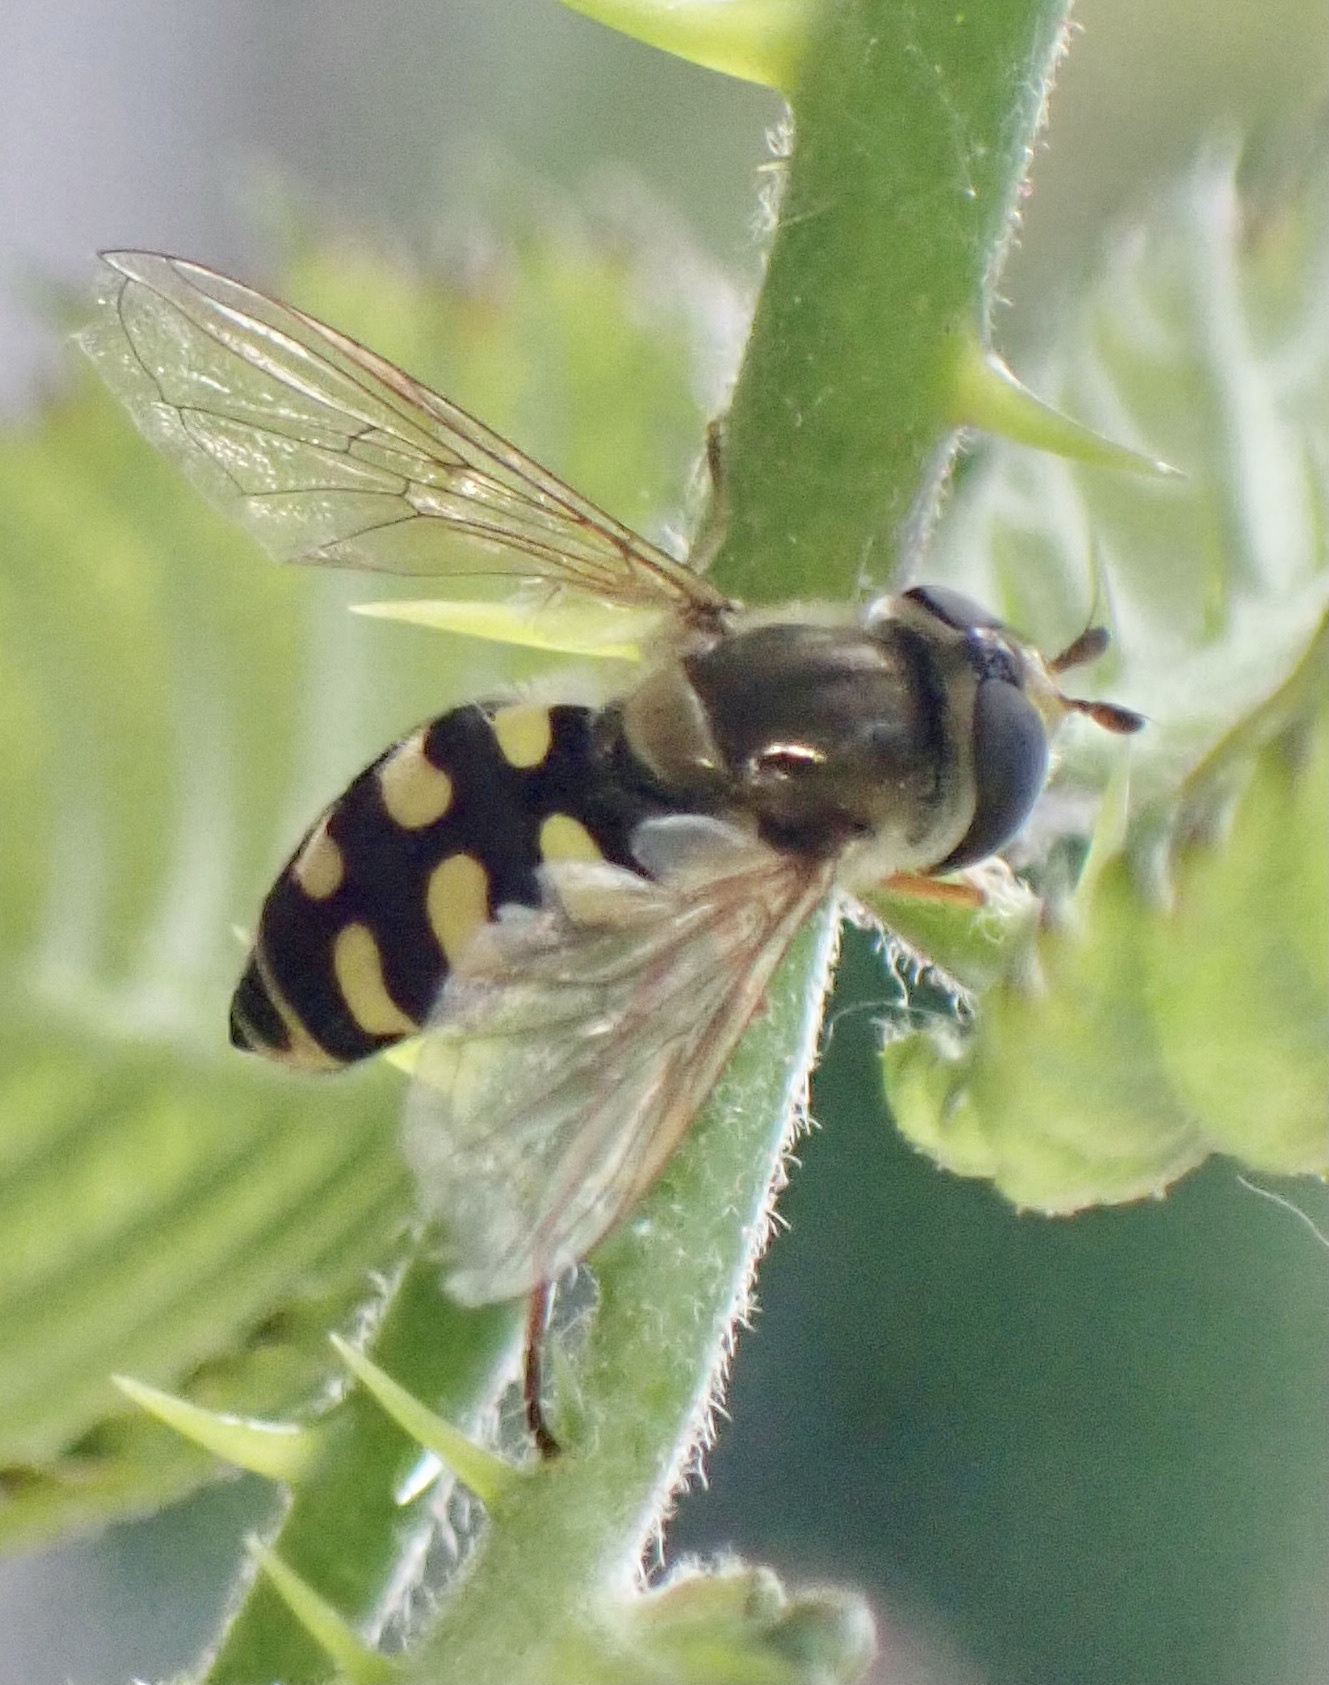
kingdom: Animalia
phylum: Arthropoda
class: Insecta
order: Diptera
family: Syrphidae
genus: Eupeodes
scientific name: Eupeodes corollae
